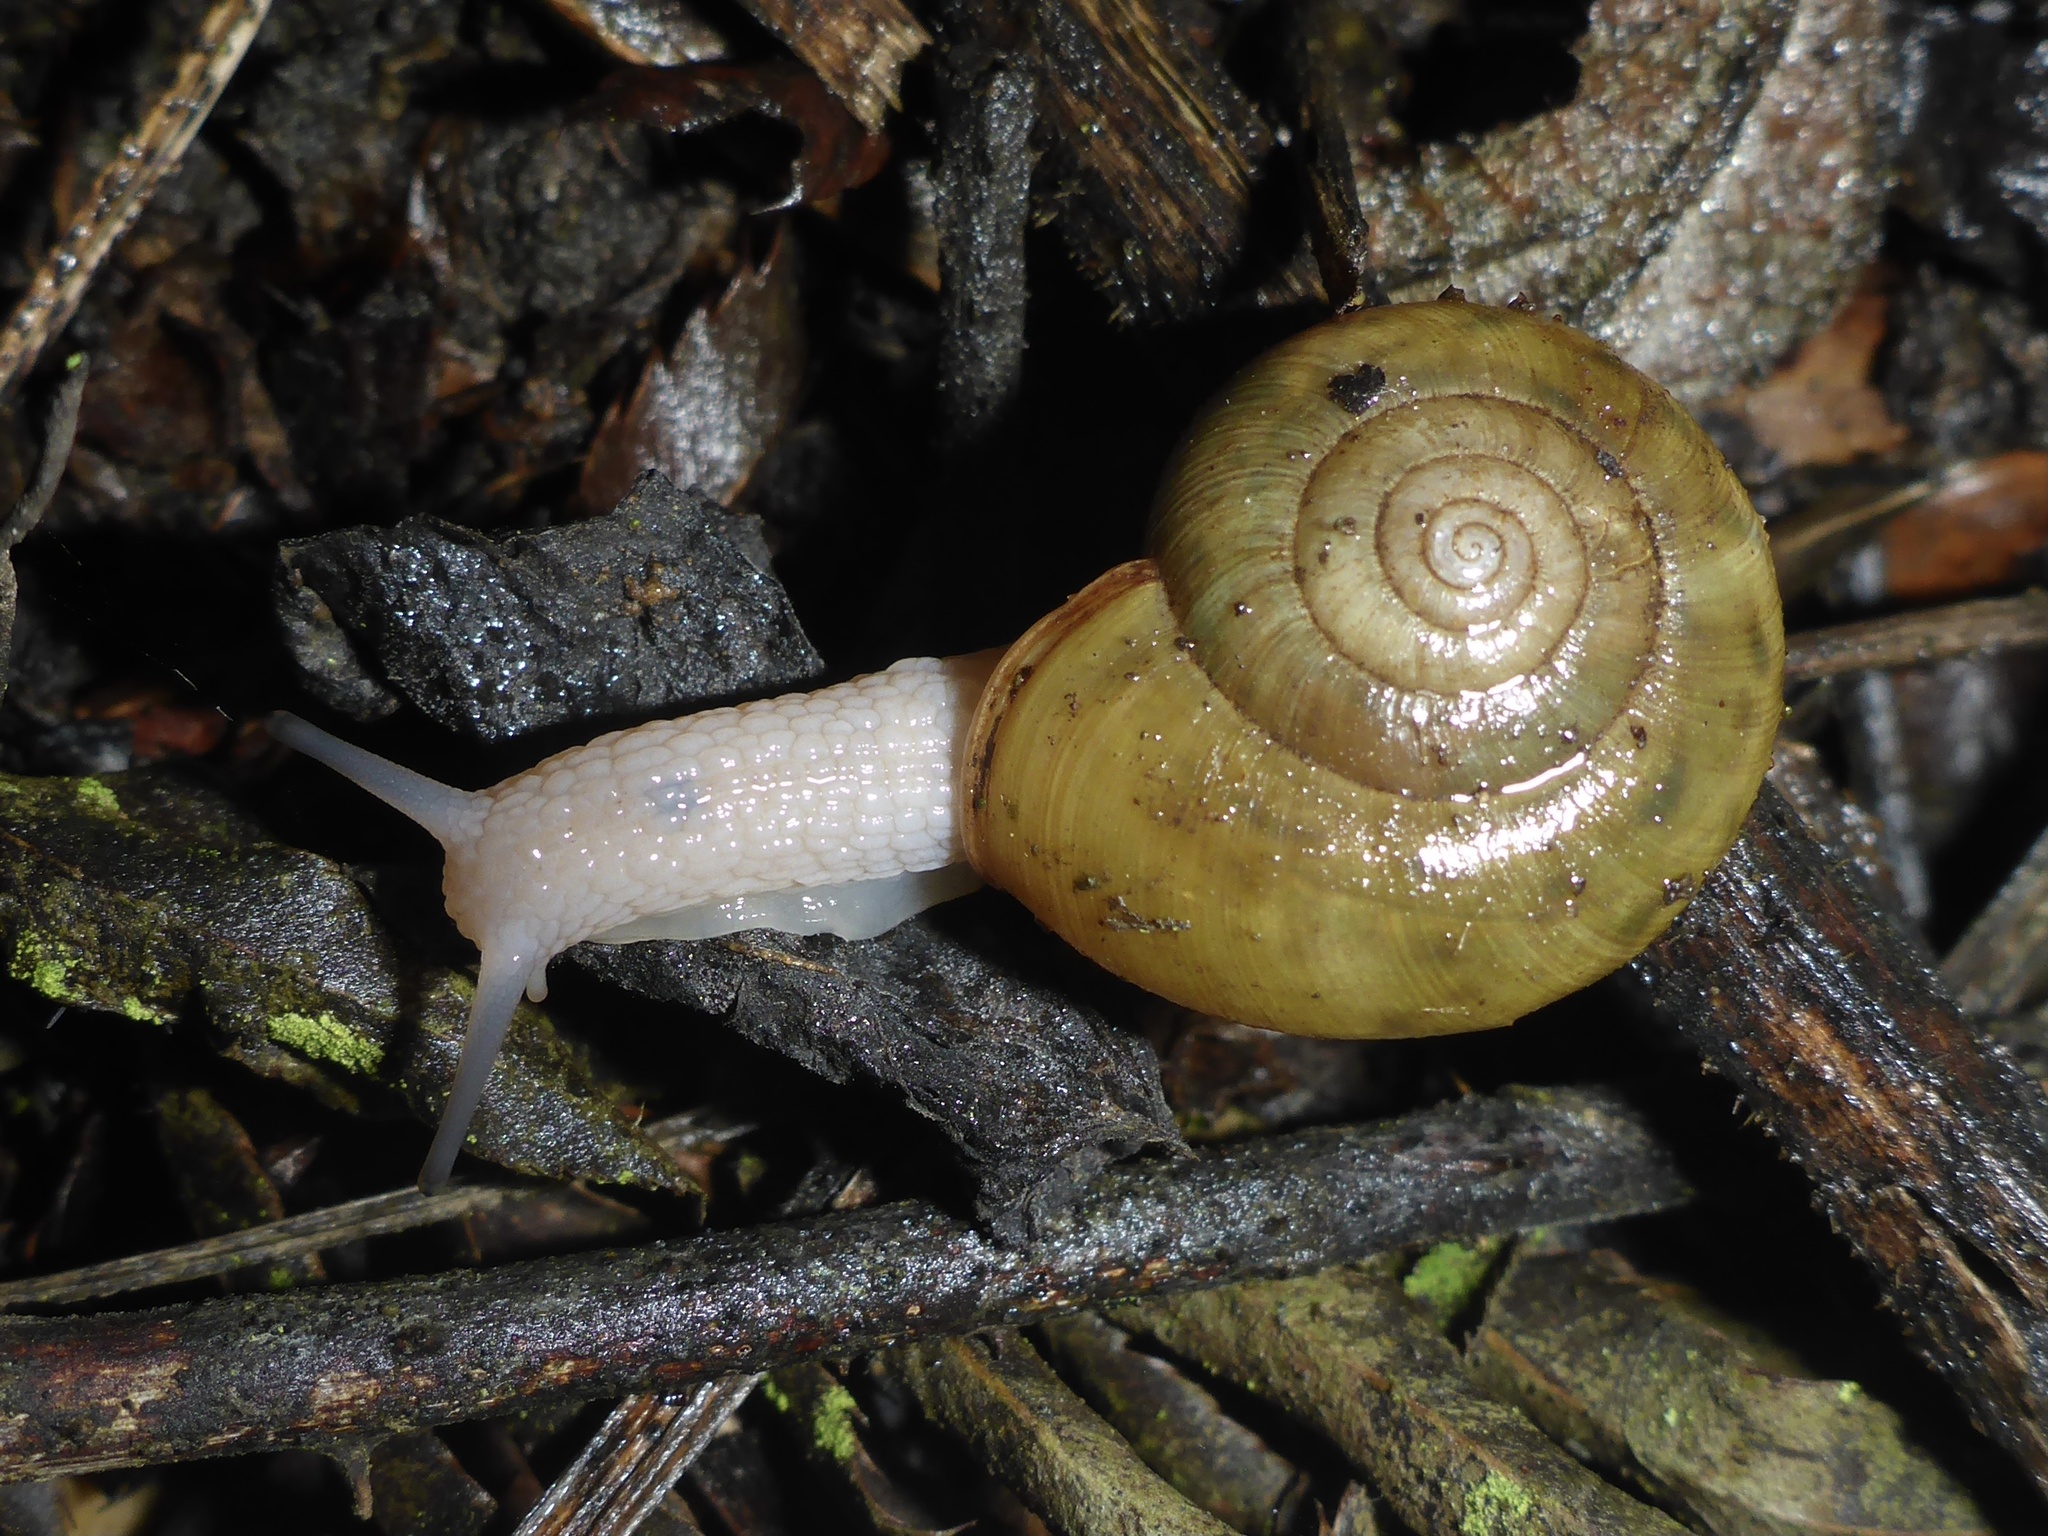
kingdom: Animalia
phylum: Mollusca
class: Gastropoda
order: Stylommatophora
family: Haplotrematidae
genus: Haplotrema
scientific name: Haplotrema minimum
